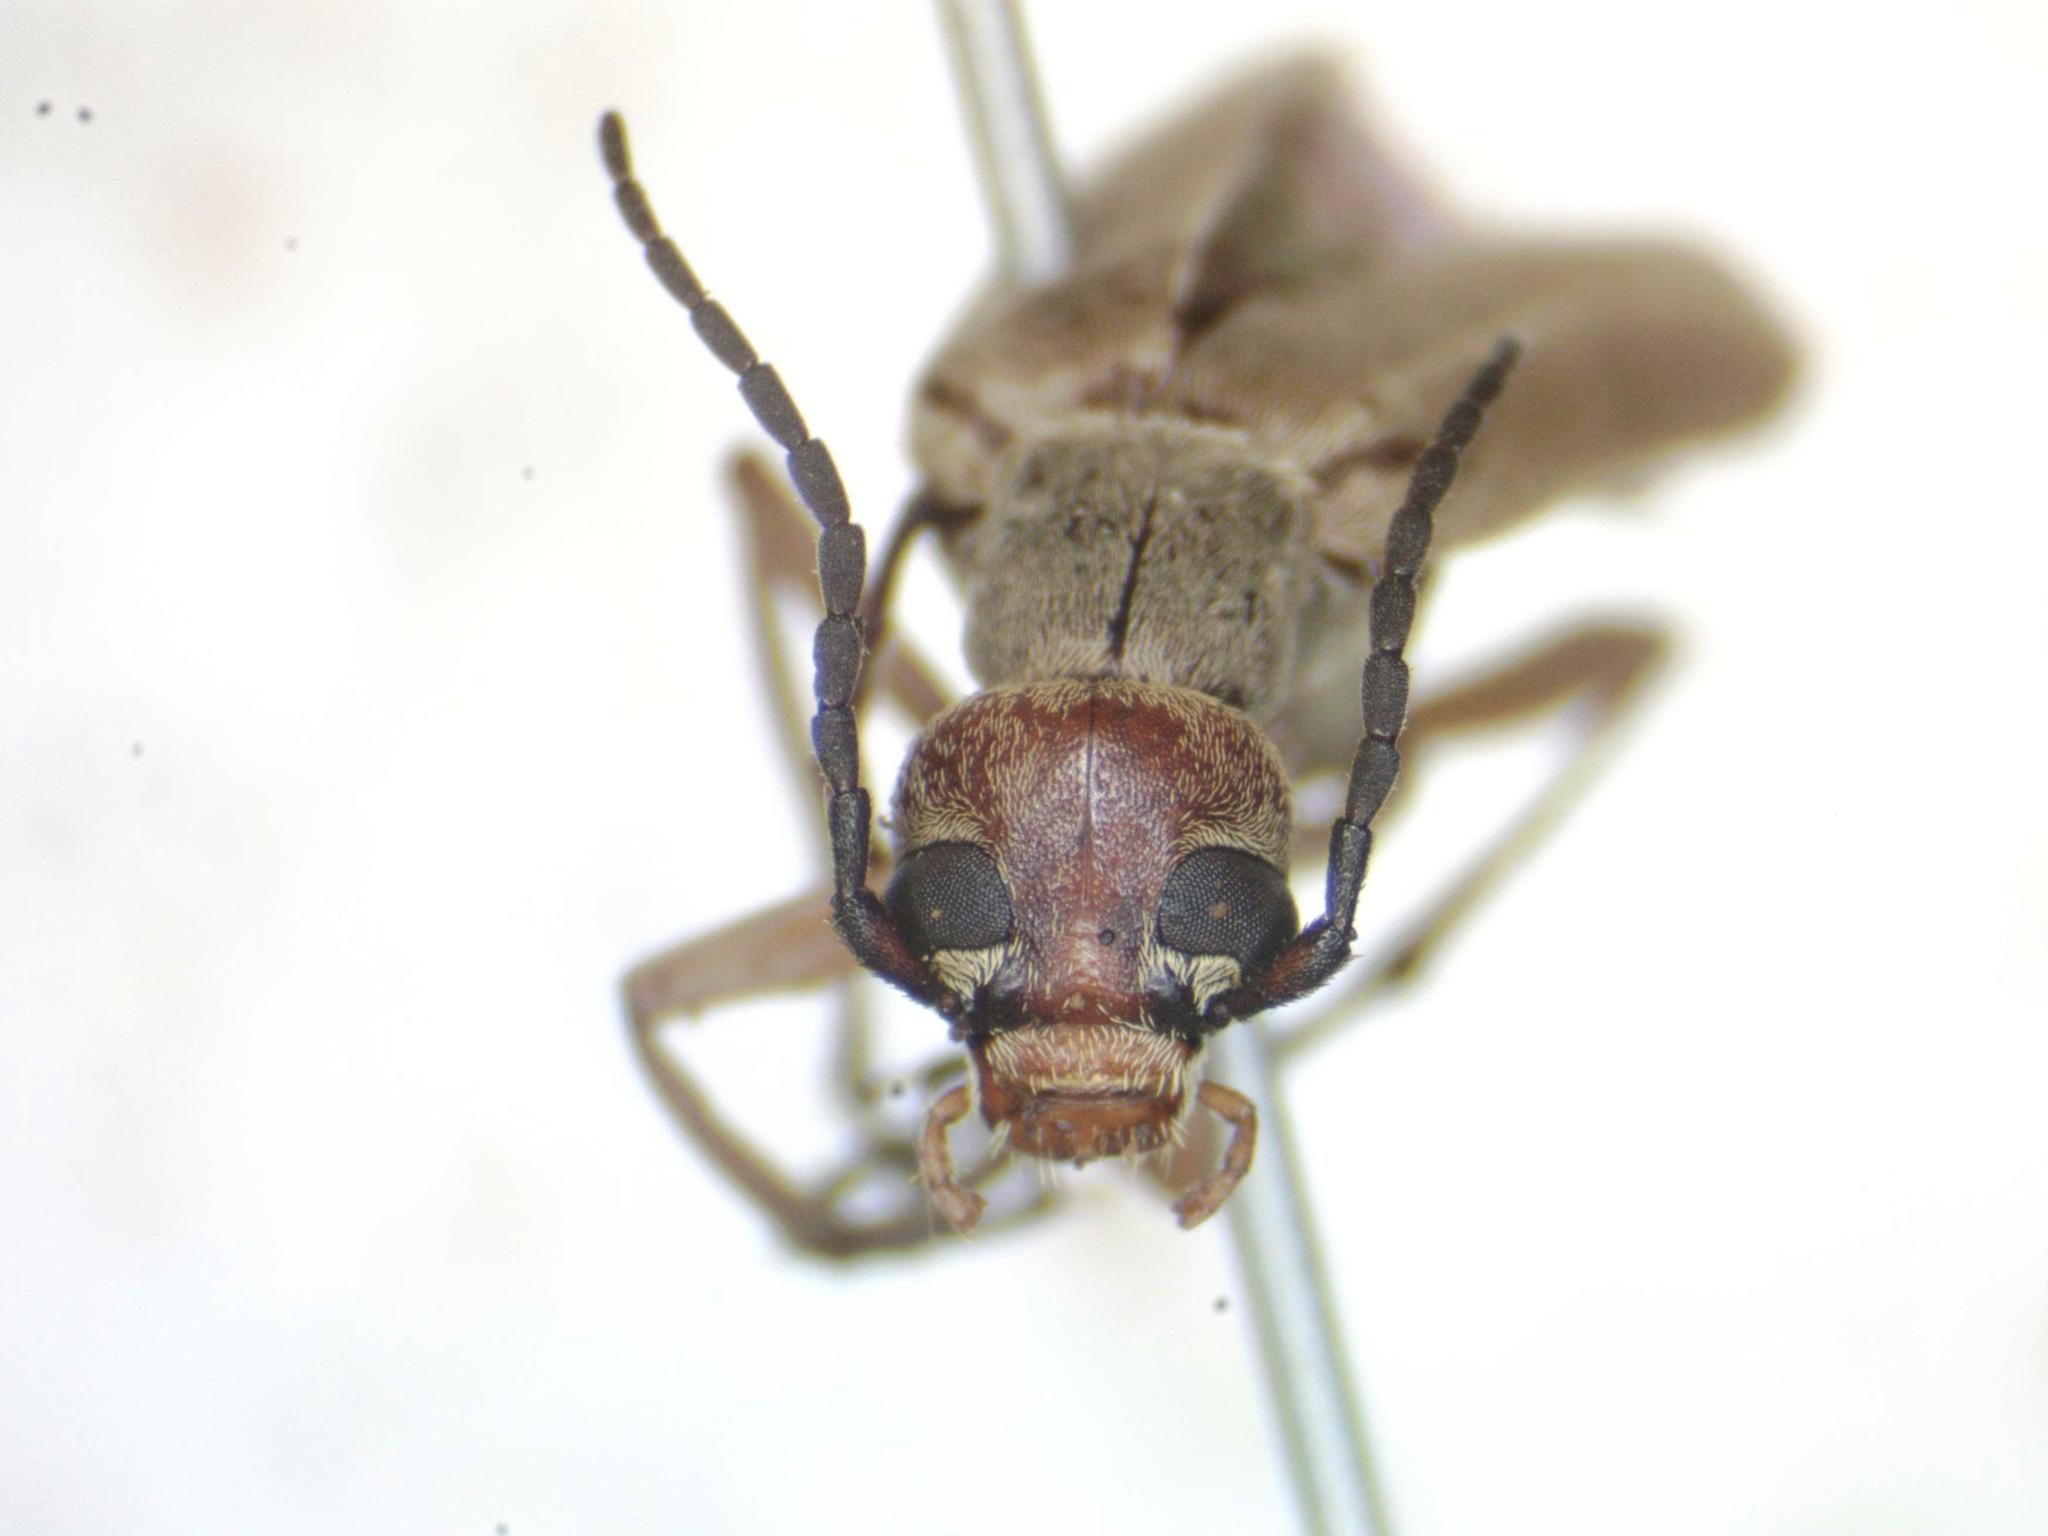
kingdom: Animalia
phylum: Arthropoda
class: Insecta
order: Coleoptera
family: Meloidae
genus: Epicauta
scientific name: Epicauta distorta
